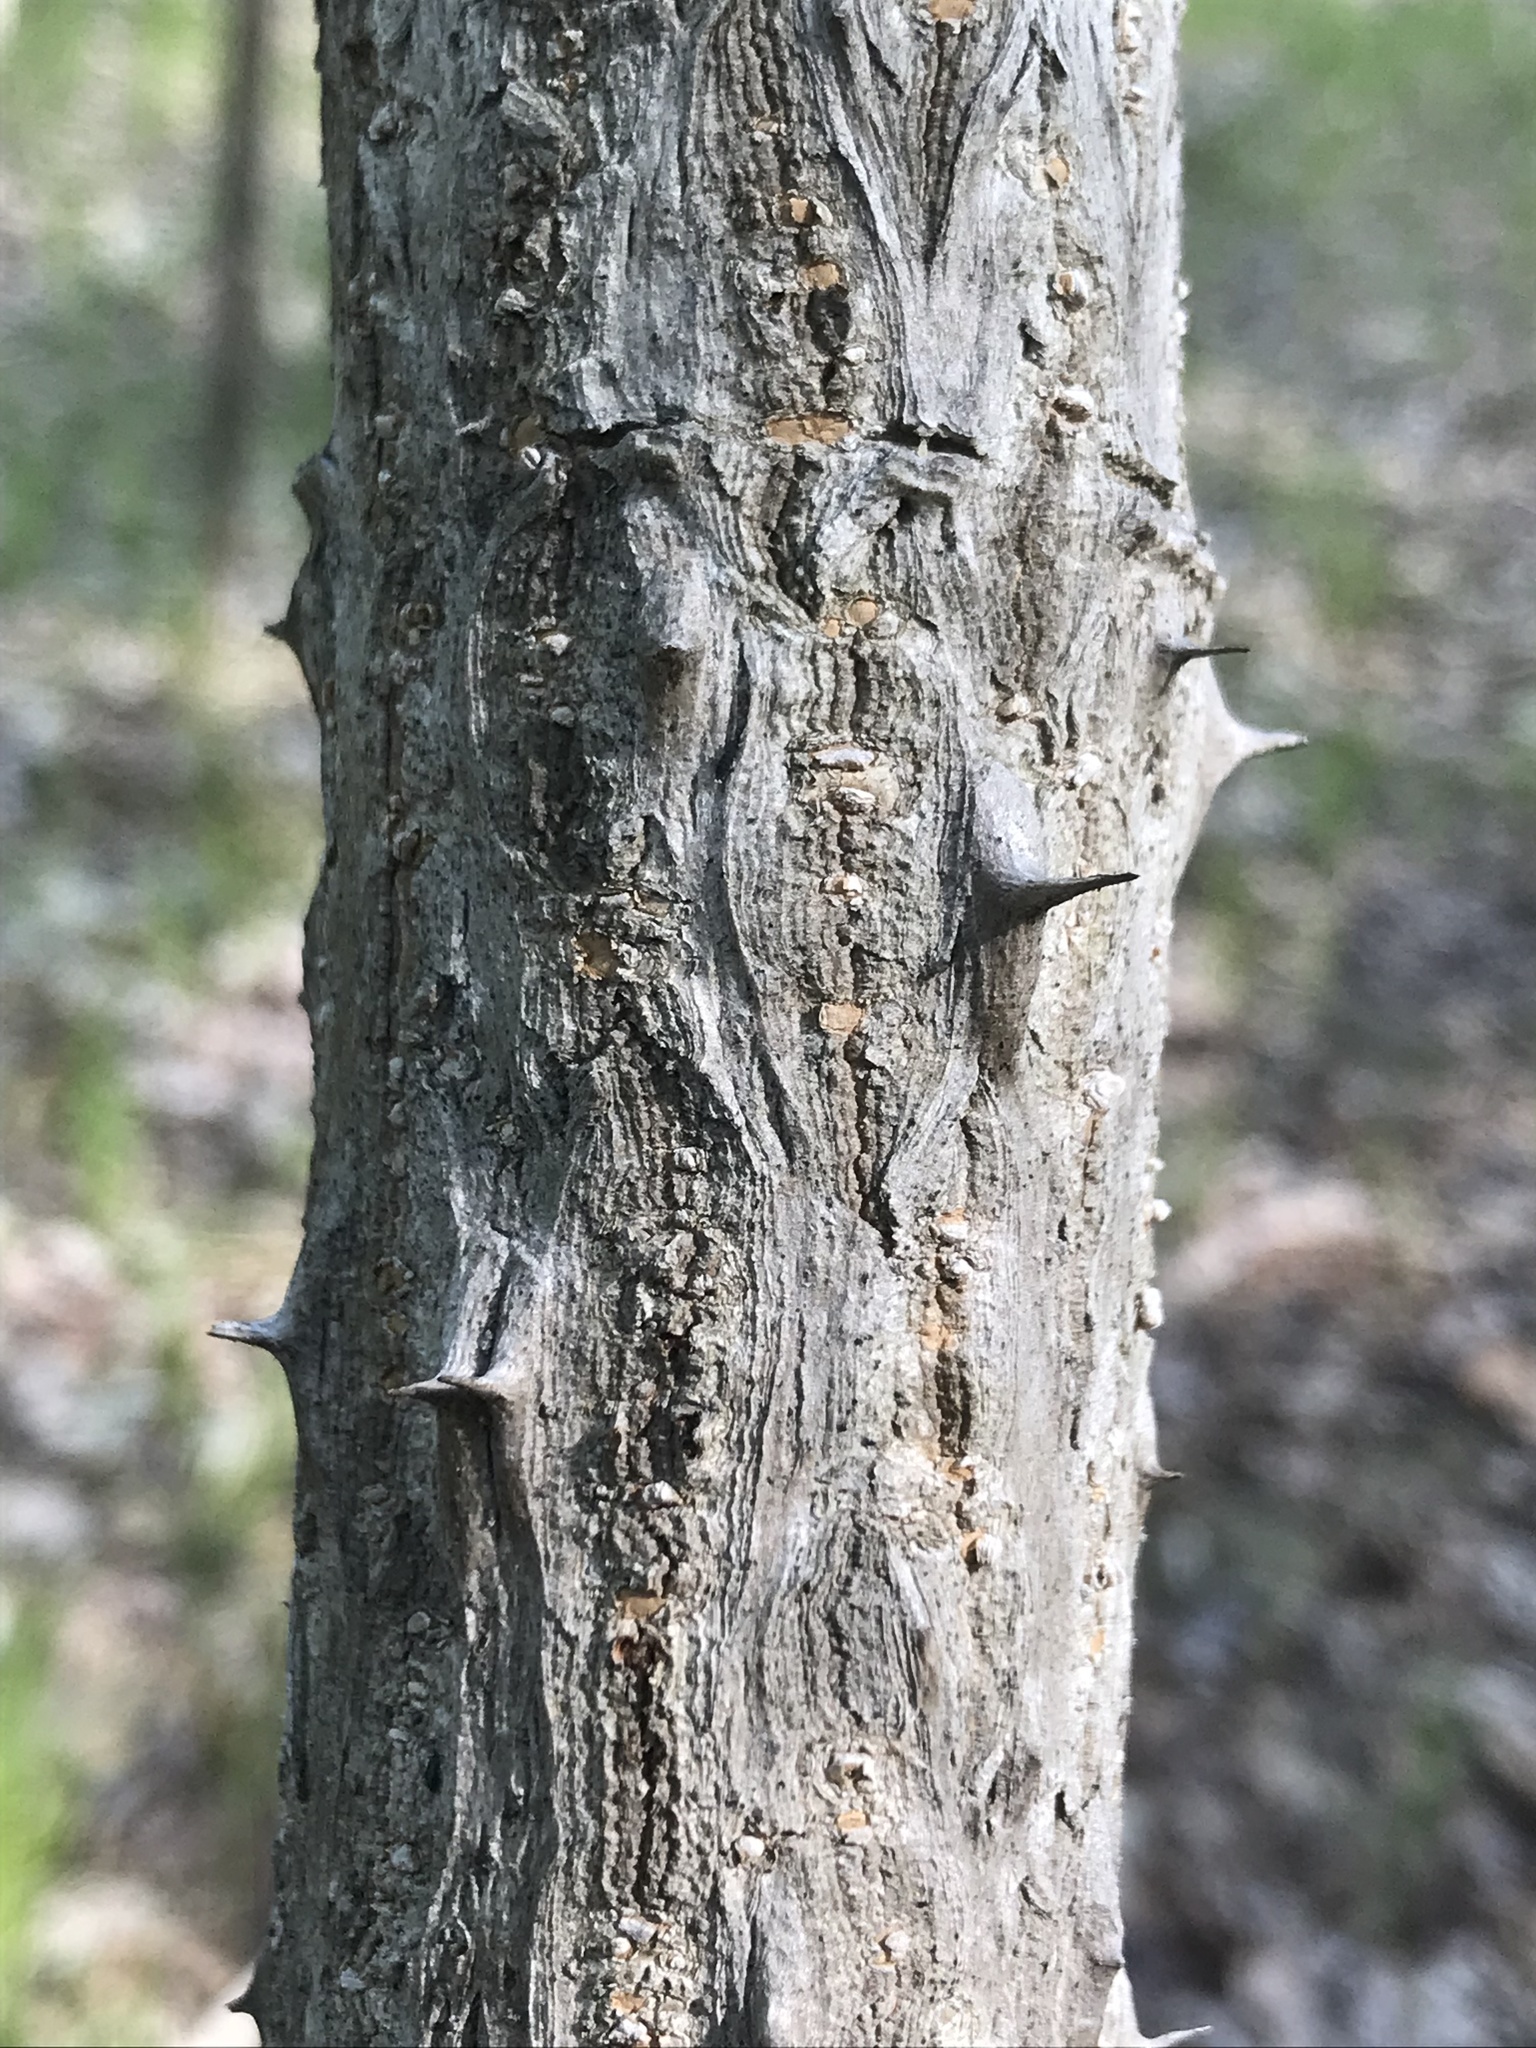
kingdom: Plantae
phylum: Tracheophyta
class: Magnoliopsida
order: Apiales
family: Araliaceae
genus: Aralia
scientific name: Aralia elata
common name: Japanese angelica-tree
